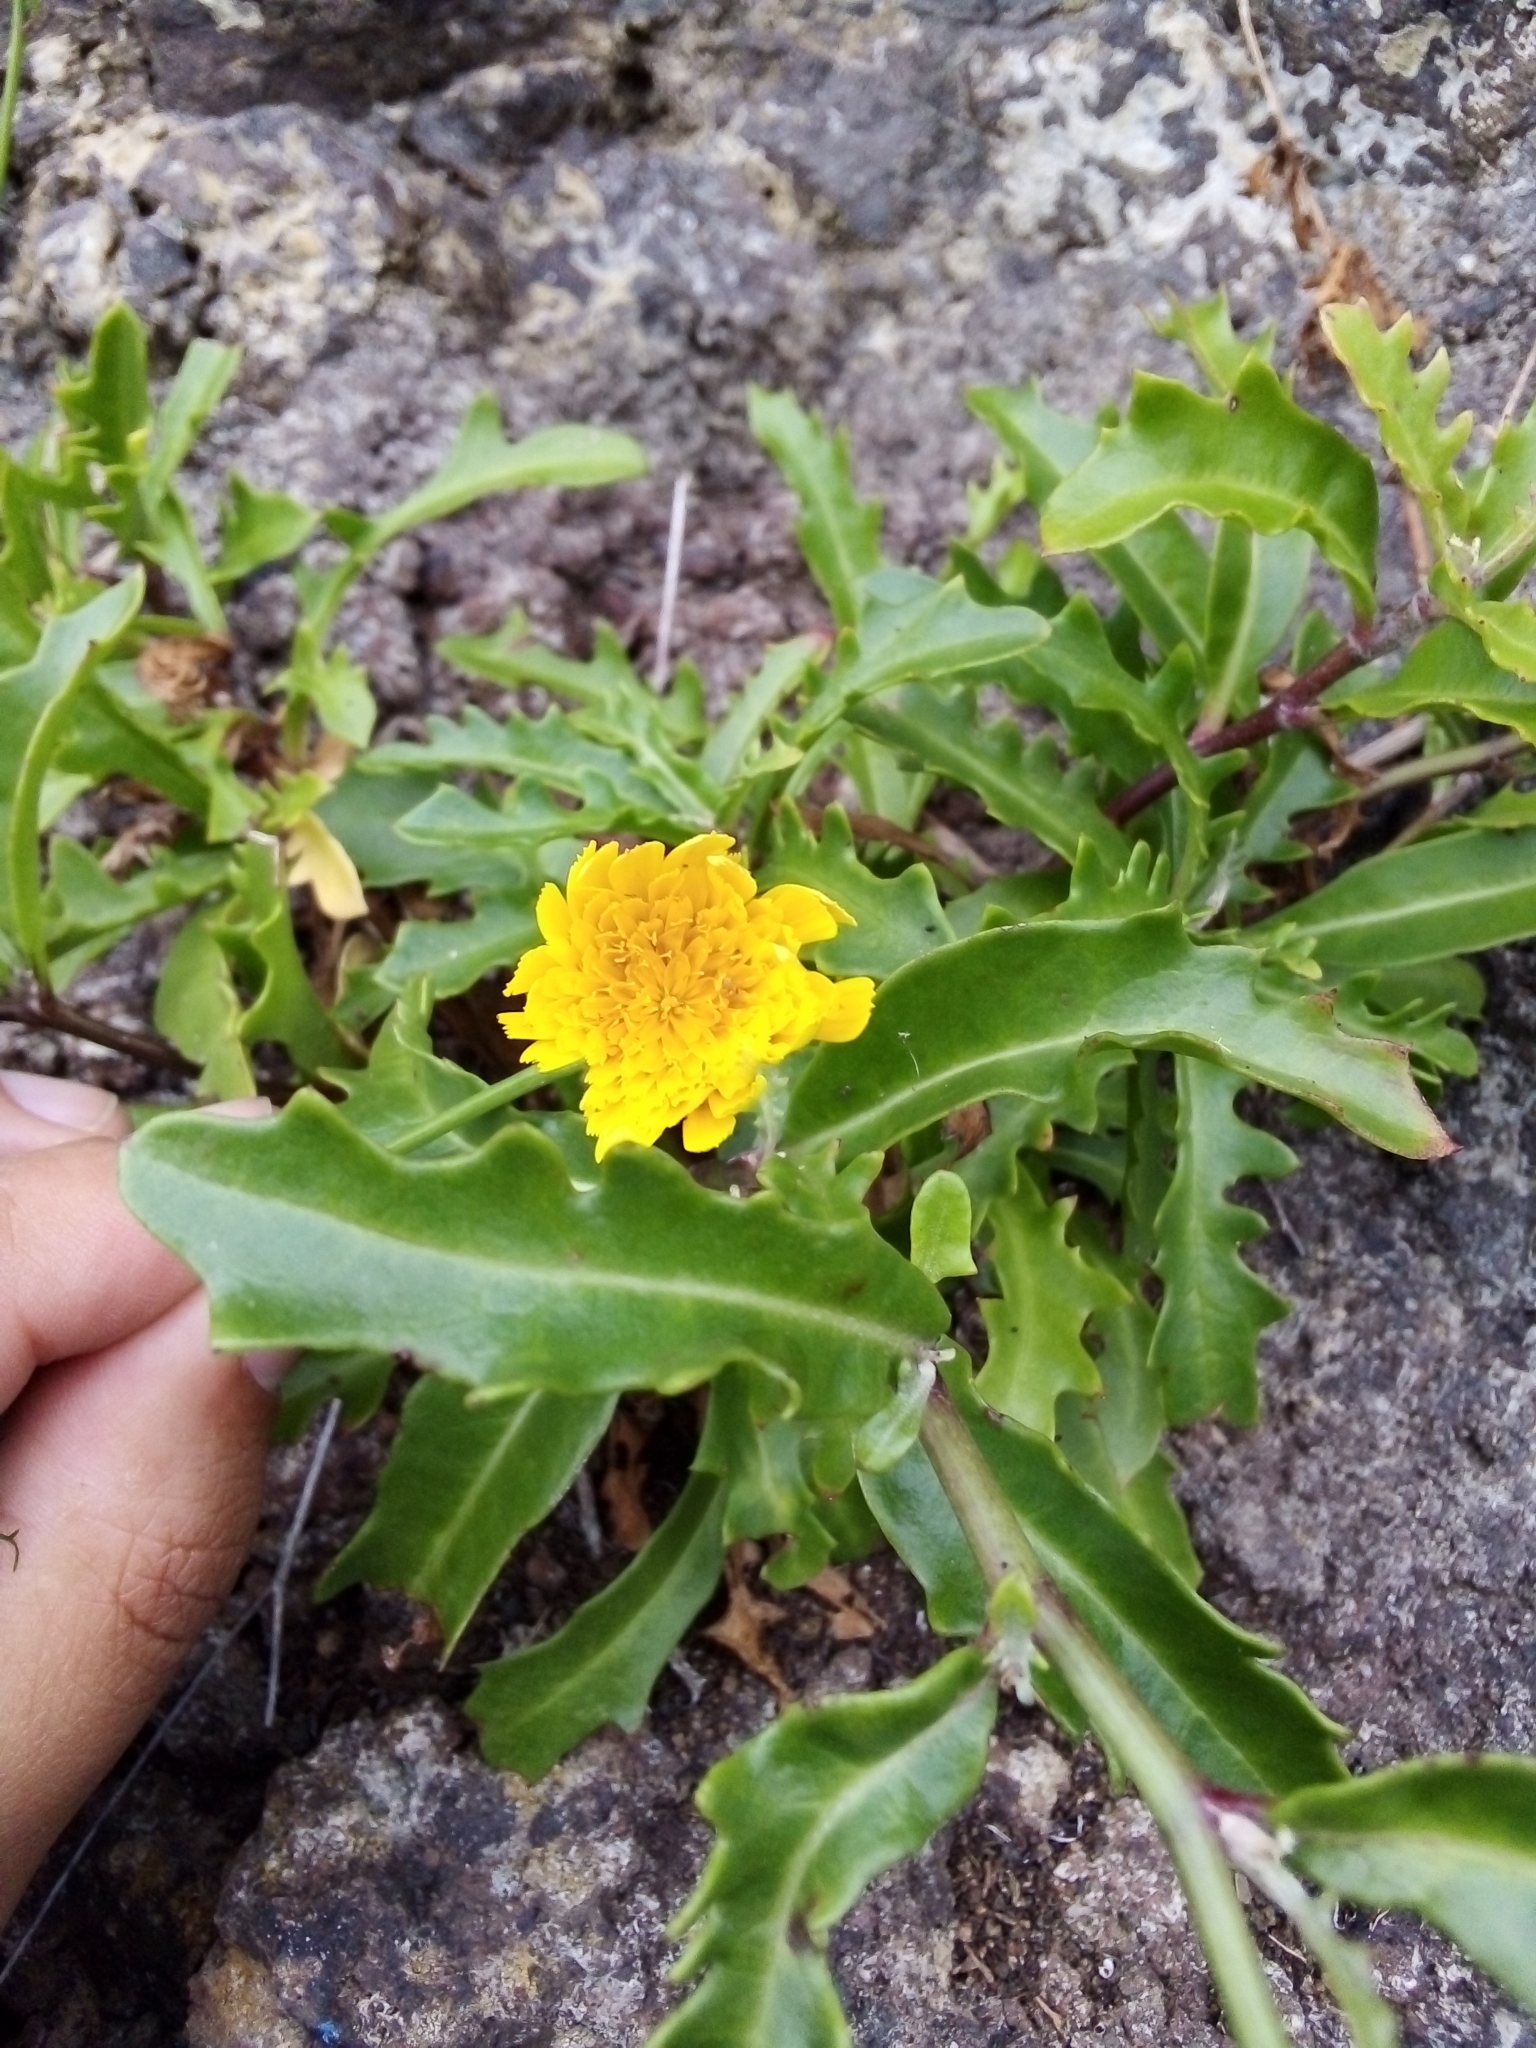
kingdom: Plantae
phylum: Tracheophyta
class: Magnoliopsida
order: Asterales
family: Asteraceae
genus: Tolpis
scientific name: Tolpis succulenta
